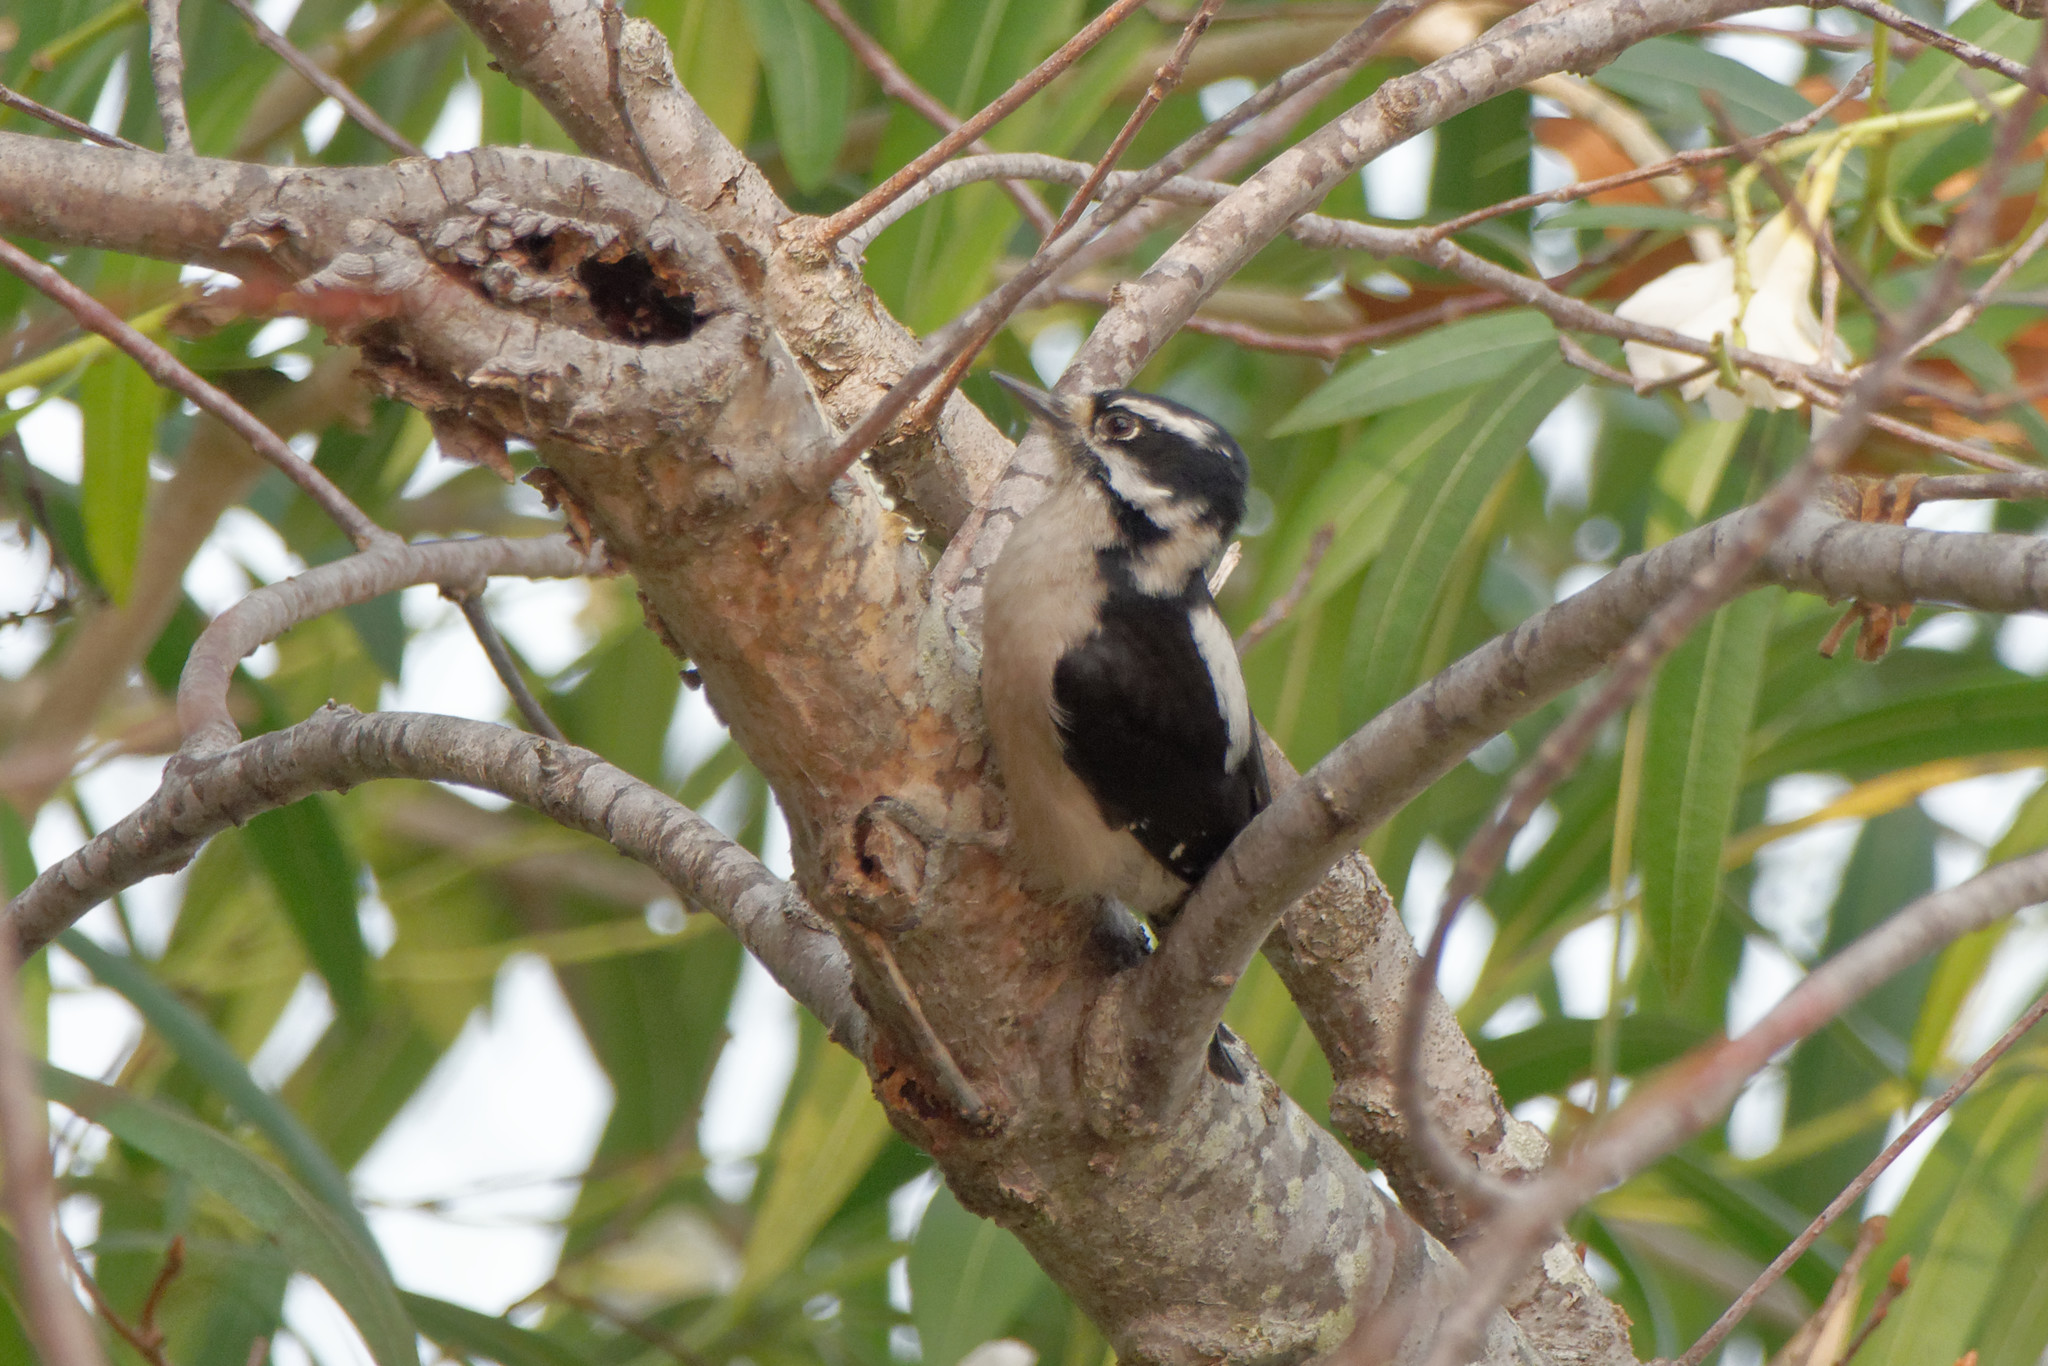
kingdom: Animalia
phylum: Chordata
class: Aves
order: Piciformes
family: Picidae
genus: Leuconotopicus
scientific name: Leuconotopicus villosus
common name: Hairy woodpecker
